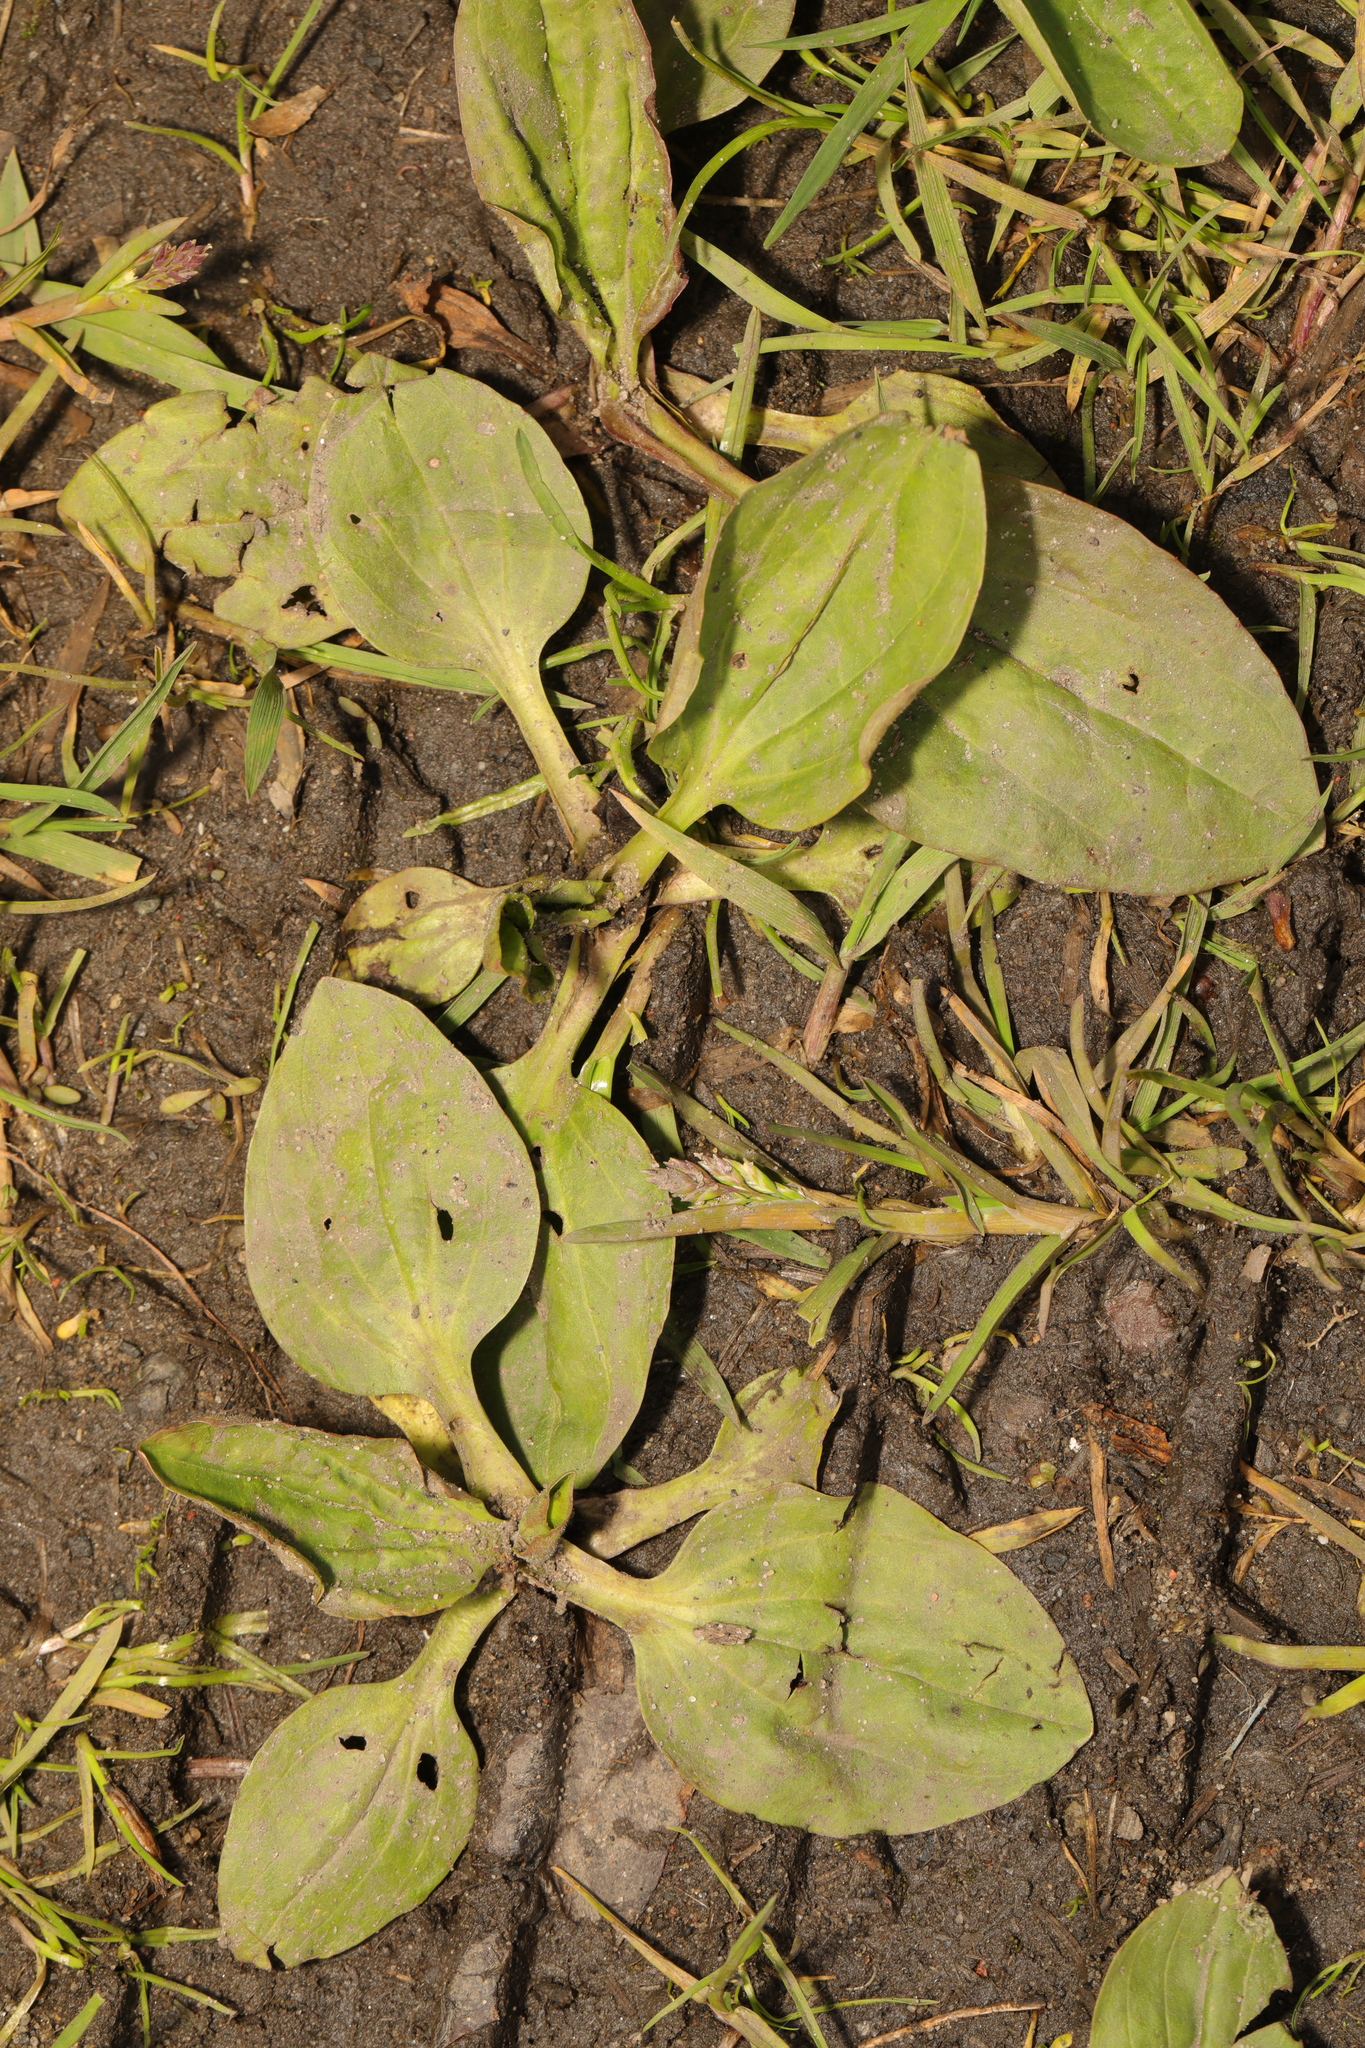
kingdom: Plantae
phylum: Tracheophyta
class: Magnoliopsida
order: Lamiales
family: Plantaginaceae
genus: Plantago
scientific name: Plantago major
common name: Common plantain
